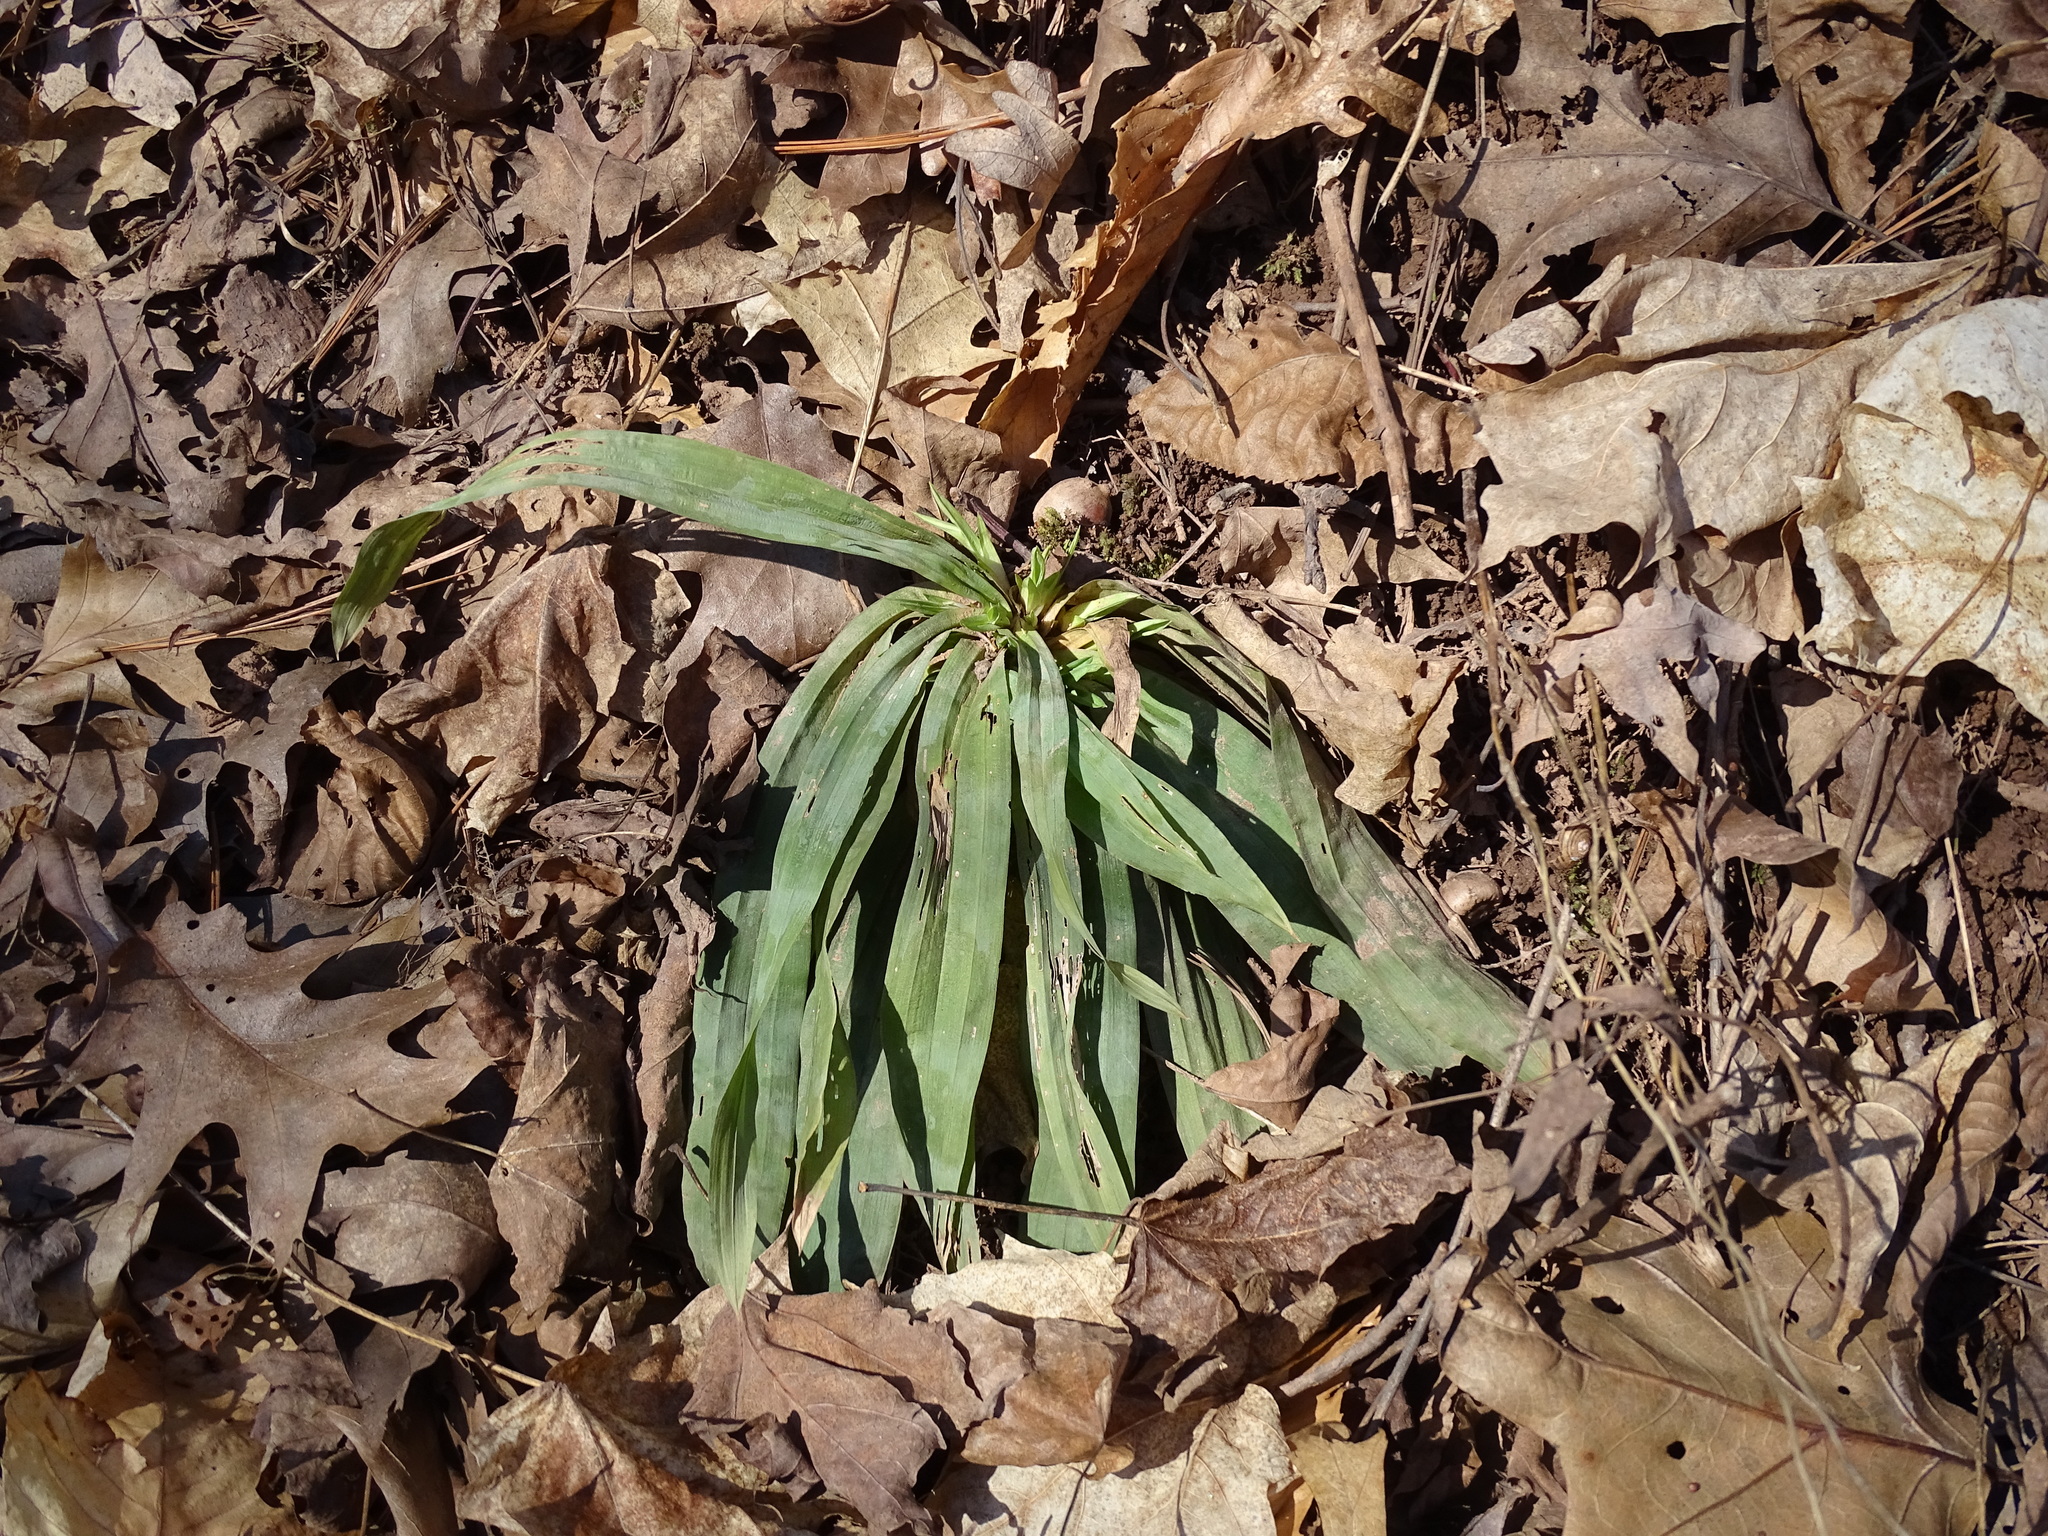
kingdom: Plantae
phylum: Tracheophyta
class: Liliopsida
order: Poales
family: Cyperaceae
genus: Carex
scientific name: Carex platyphylla
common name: Broad-leaved sedge
